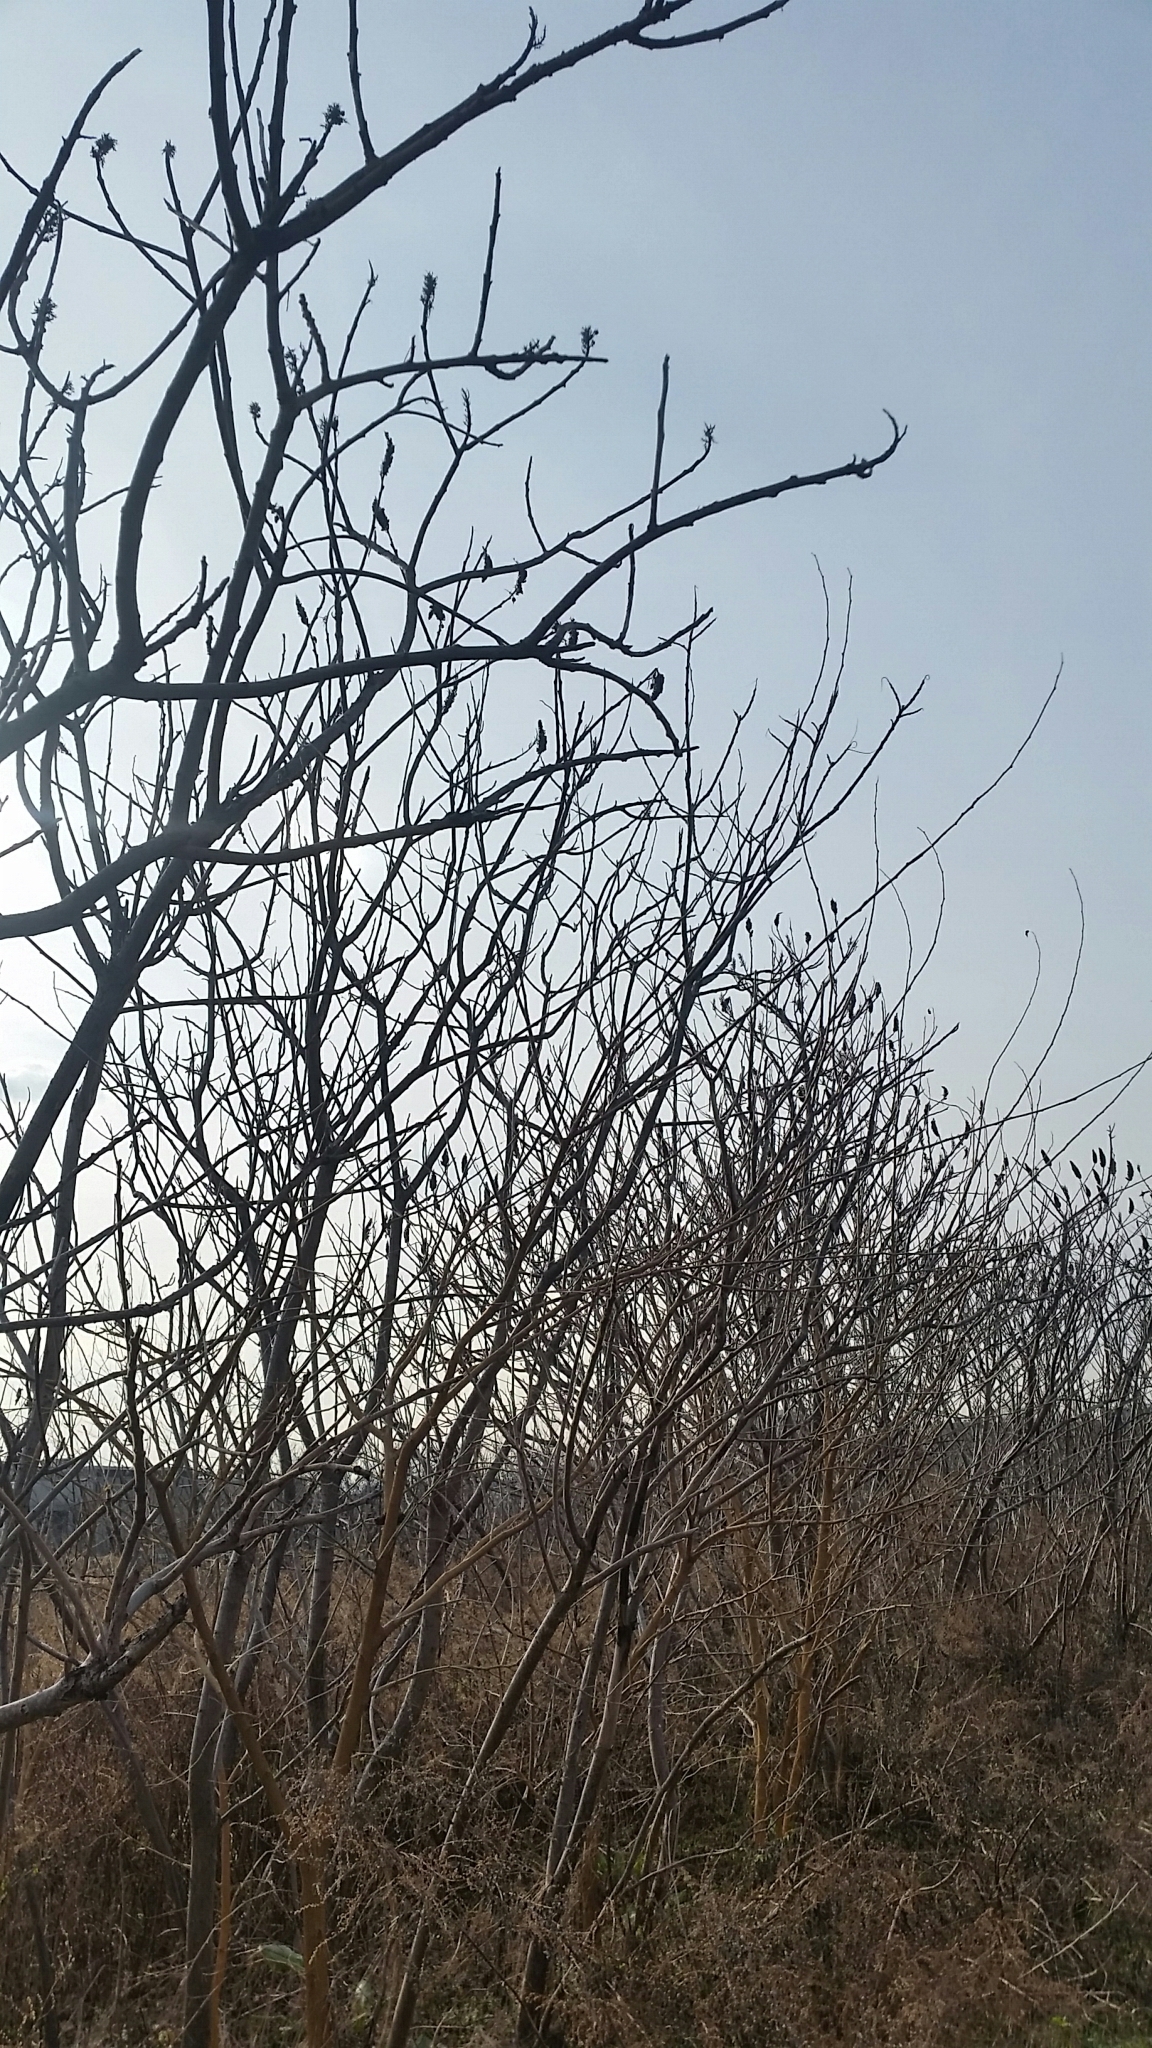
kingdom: Plantae
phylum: Tracheophyta
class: Magnoliopsida
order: Sapindales
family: Anacardiaceae
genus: Rhus
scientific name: Rhus
